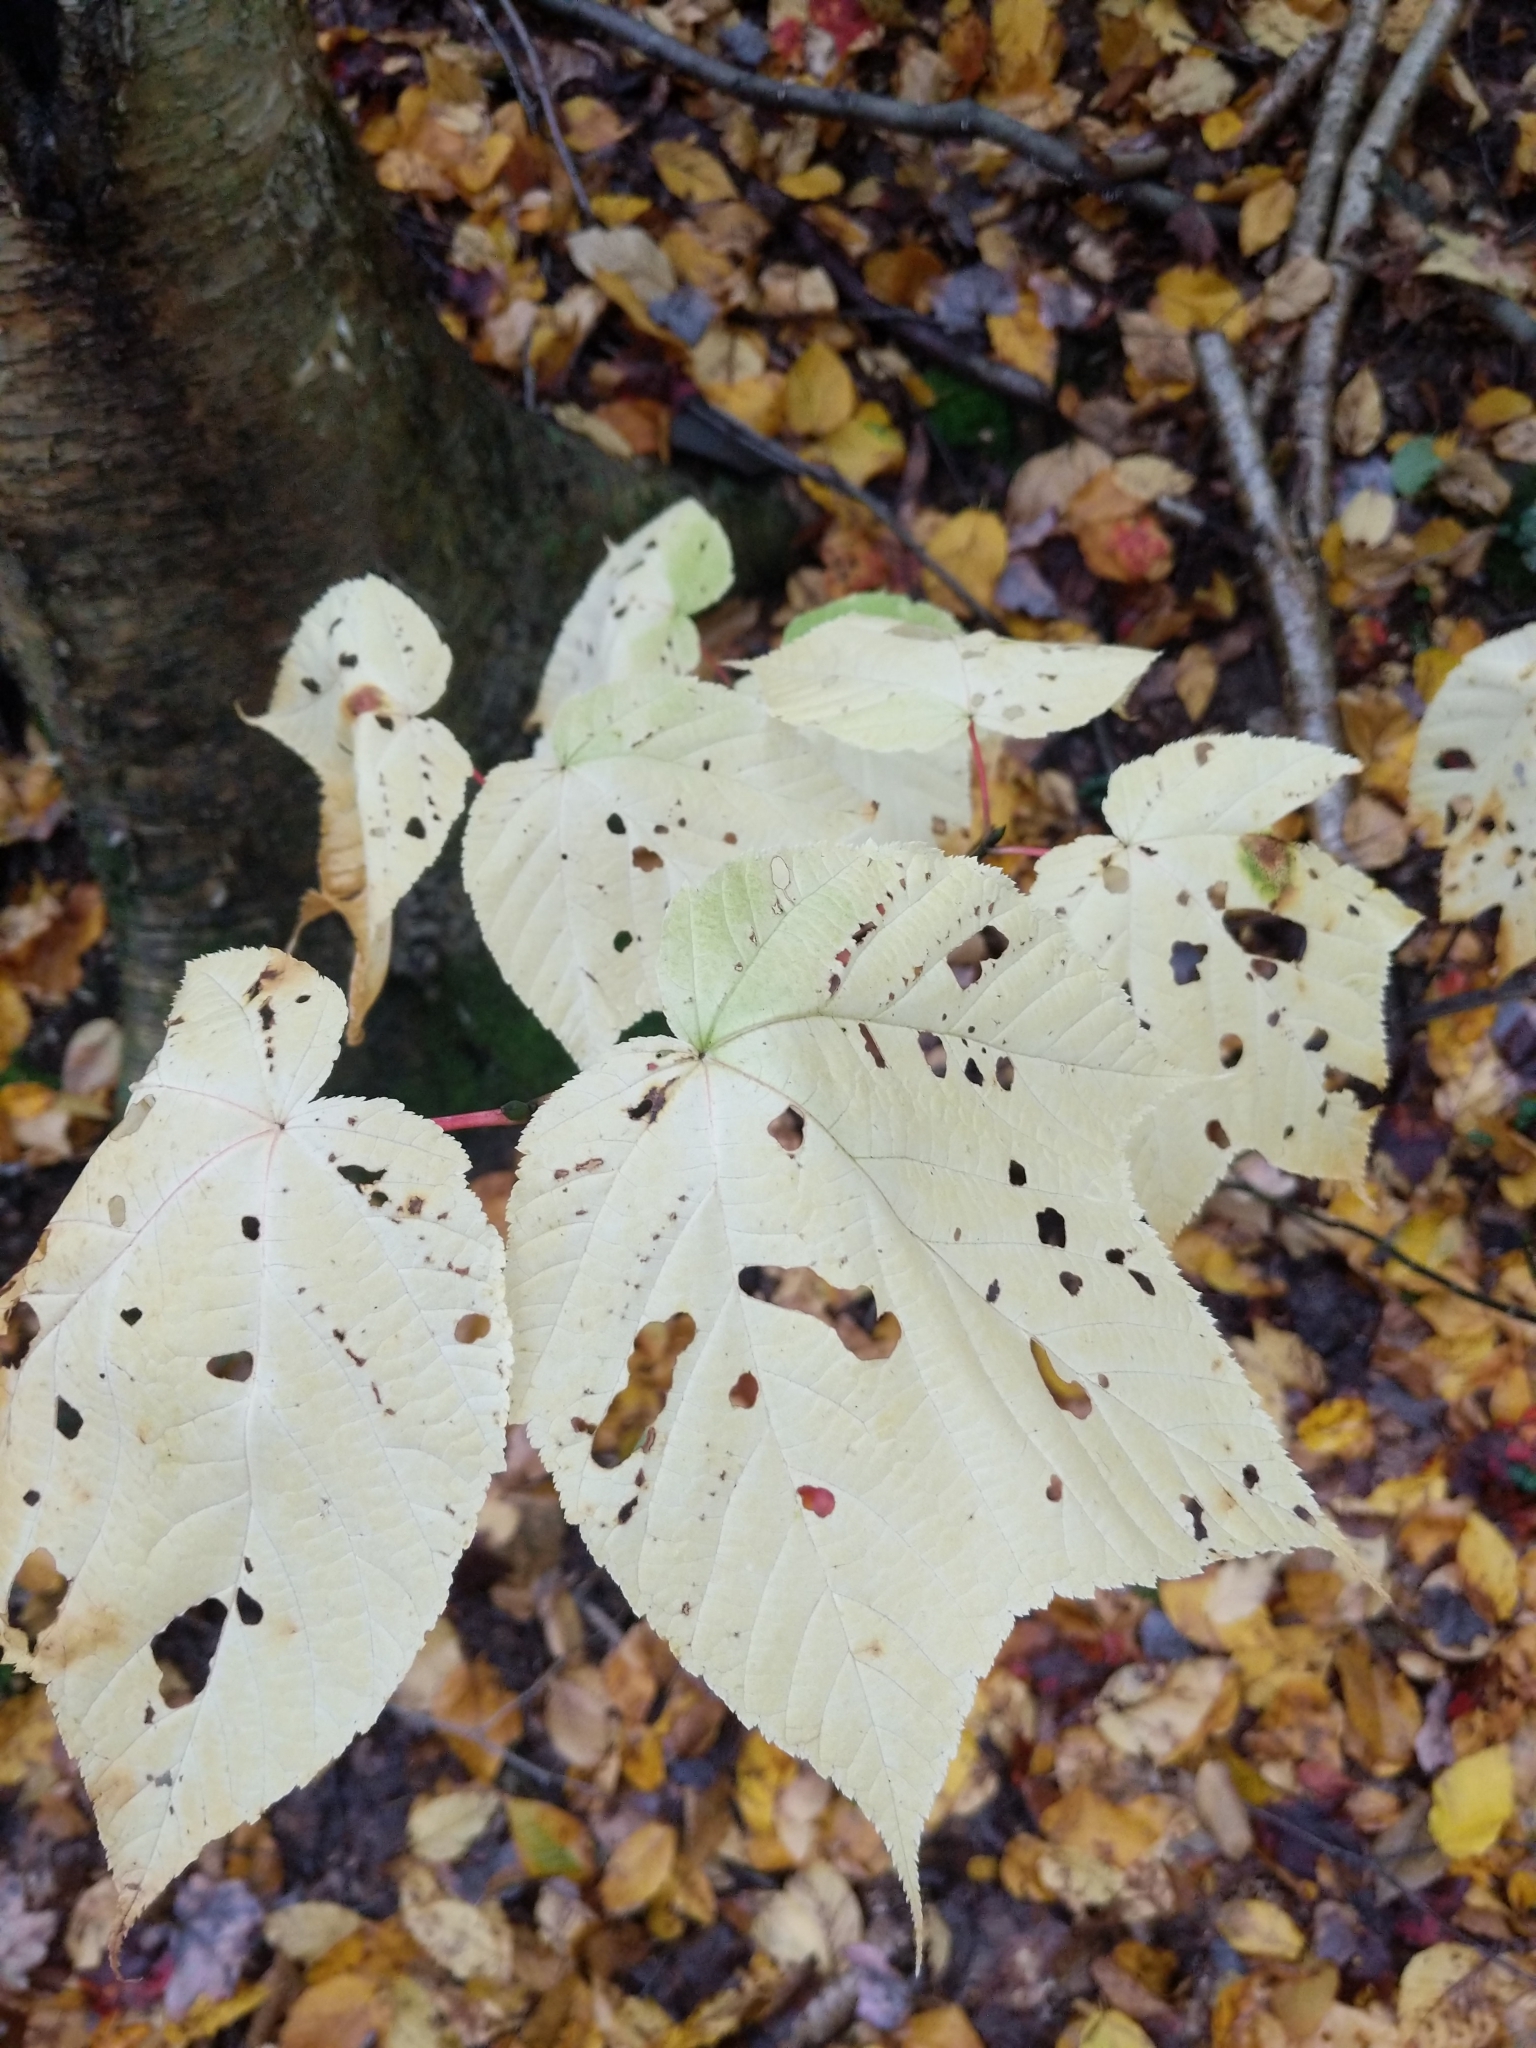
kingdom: Plantae
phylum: Tracheophyta
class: Magnoliopsida
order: Sapindales
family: Sapindaceae
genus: Acer
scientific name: Acer pensylvanicum
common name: Moosewood
